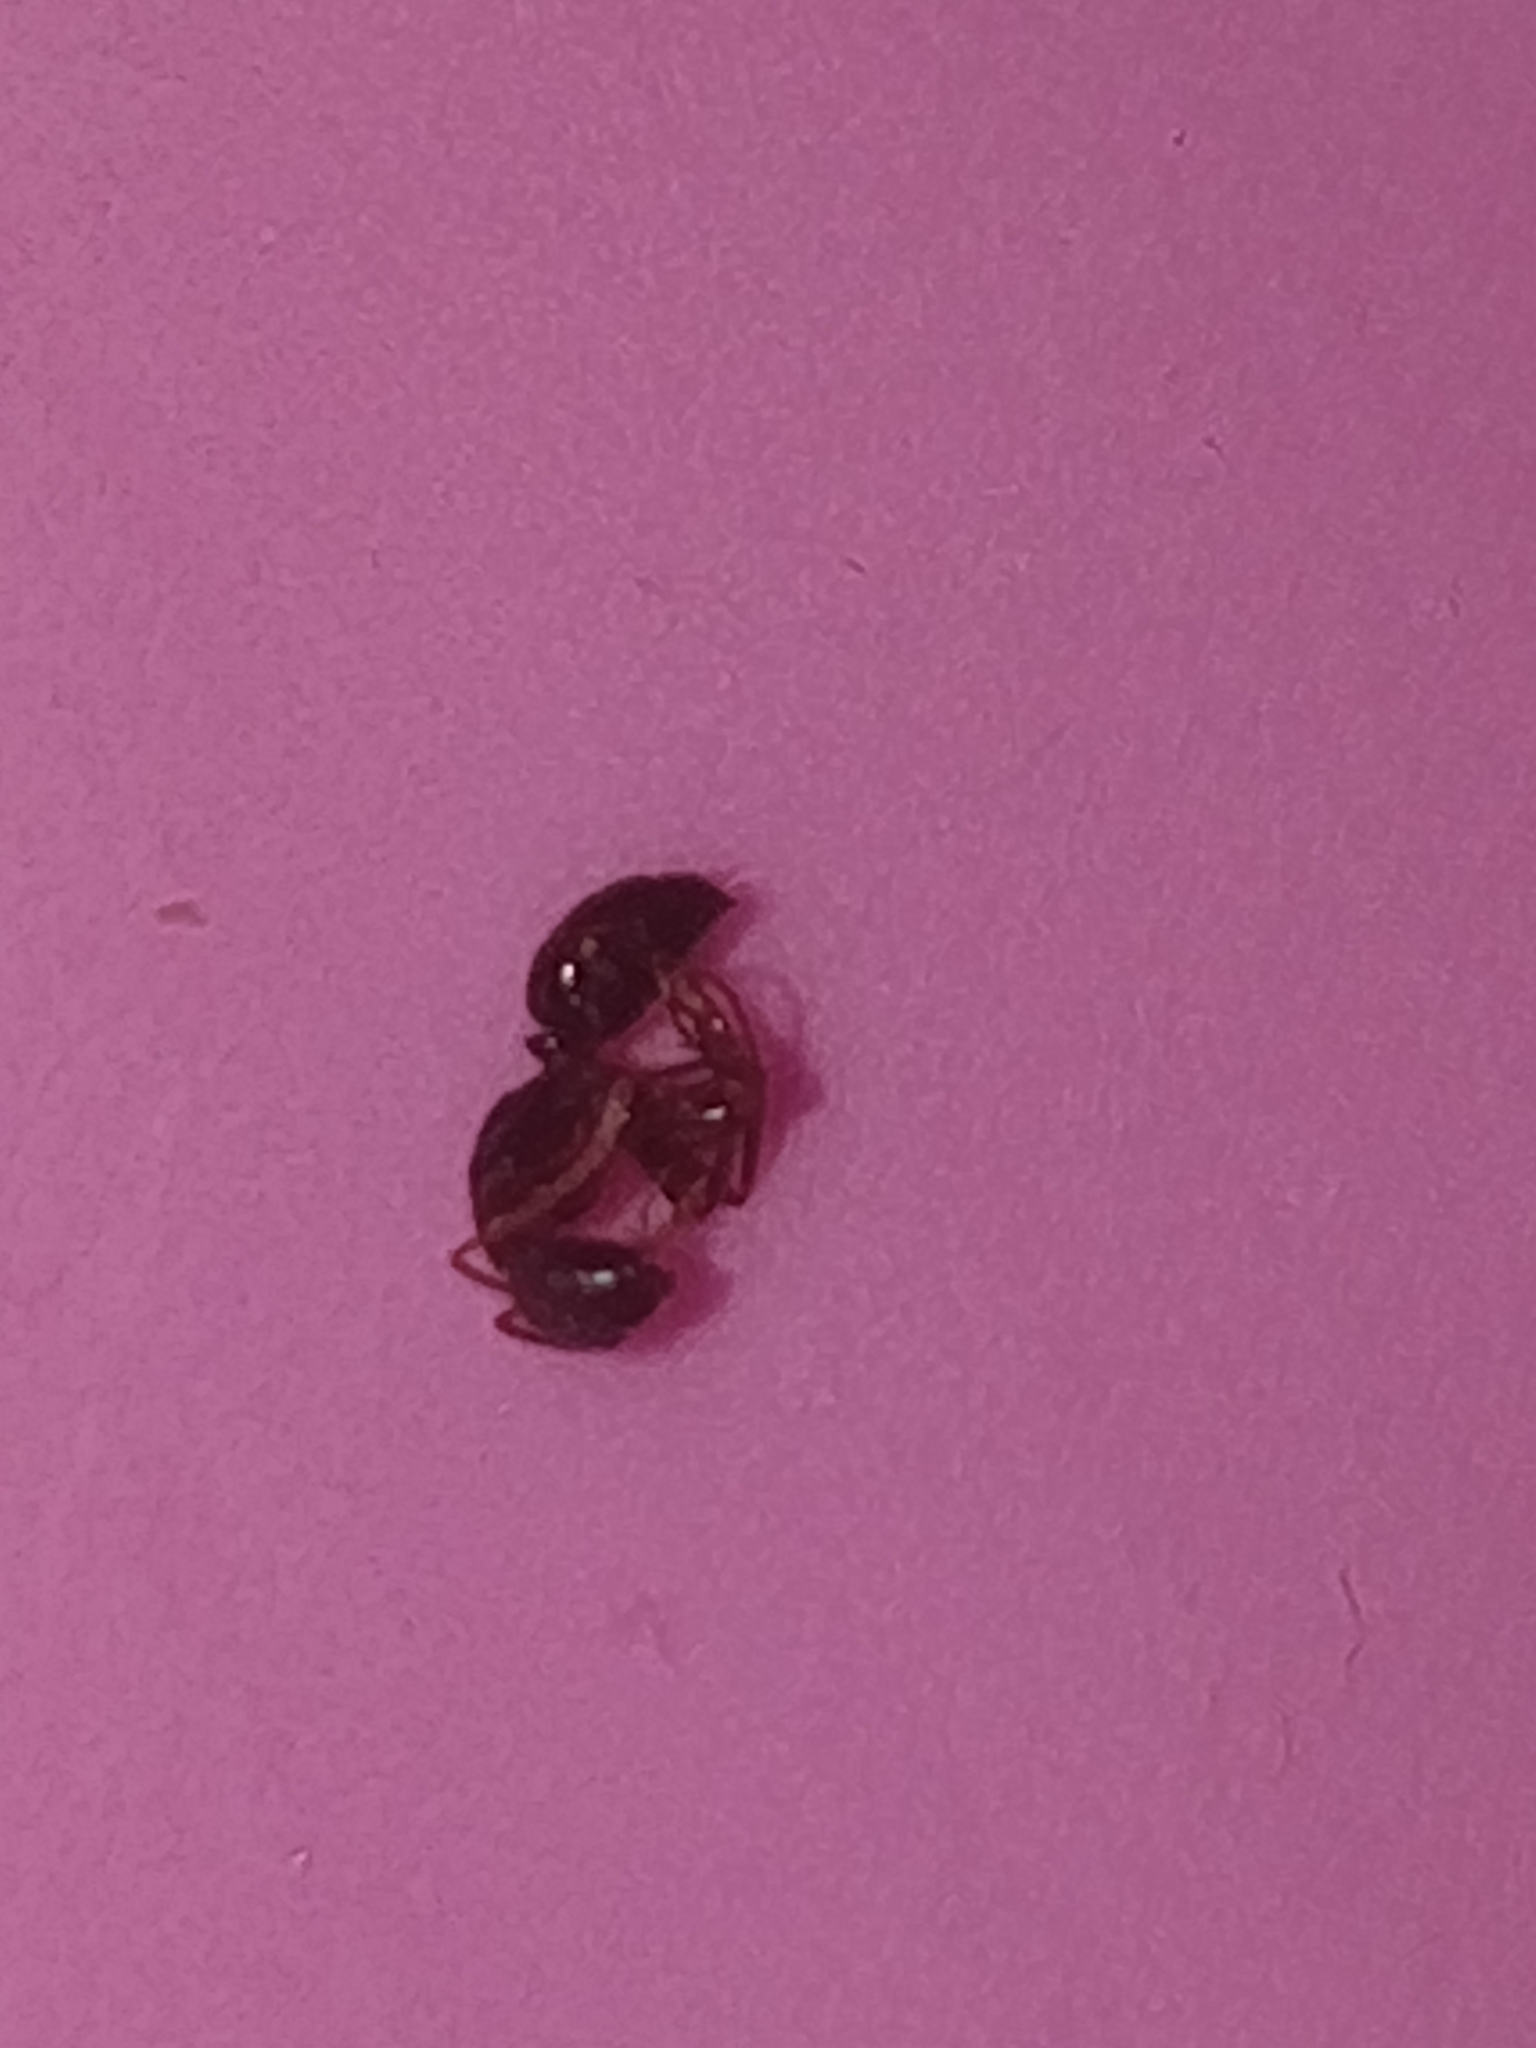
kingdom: Animalia
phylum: Arthropoda
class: Insecta
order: Hymenoptera
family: Formicidae
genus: Camponotus
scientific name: Camponotus nearcticus
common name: Smaller carpenter ant
